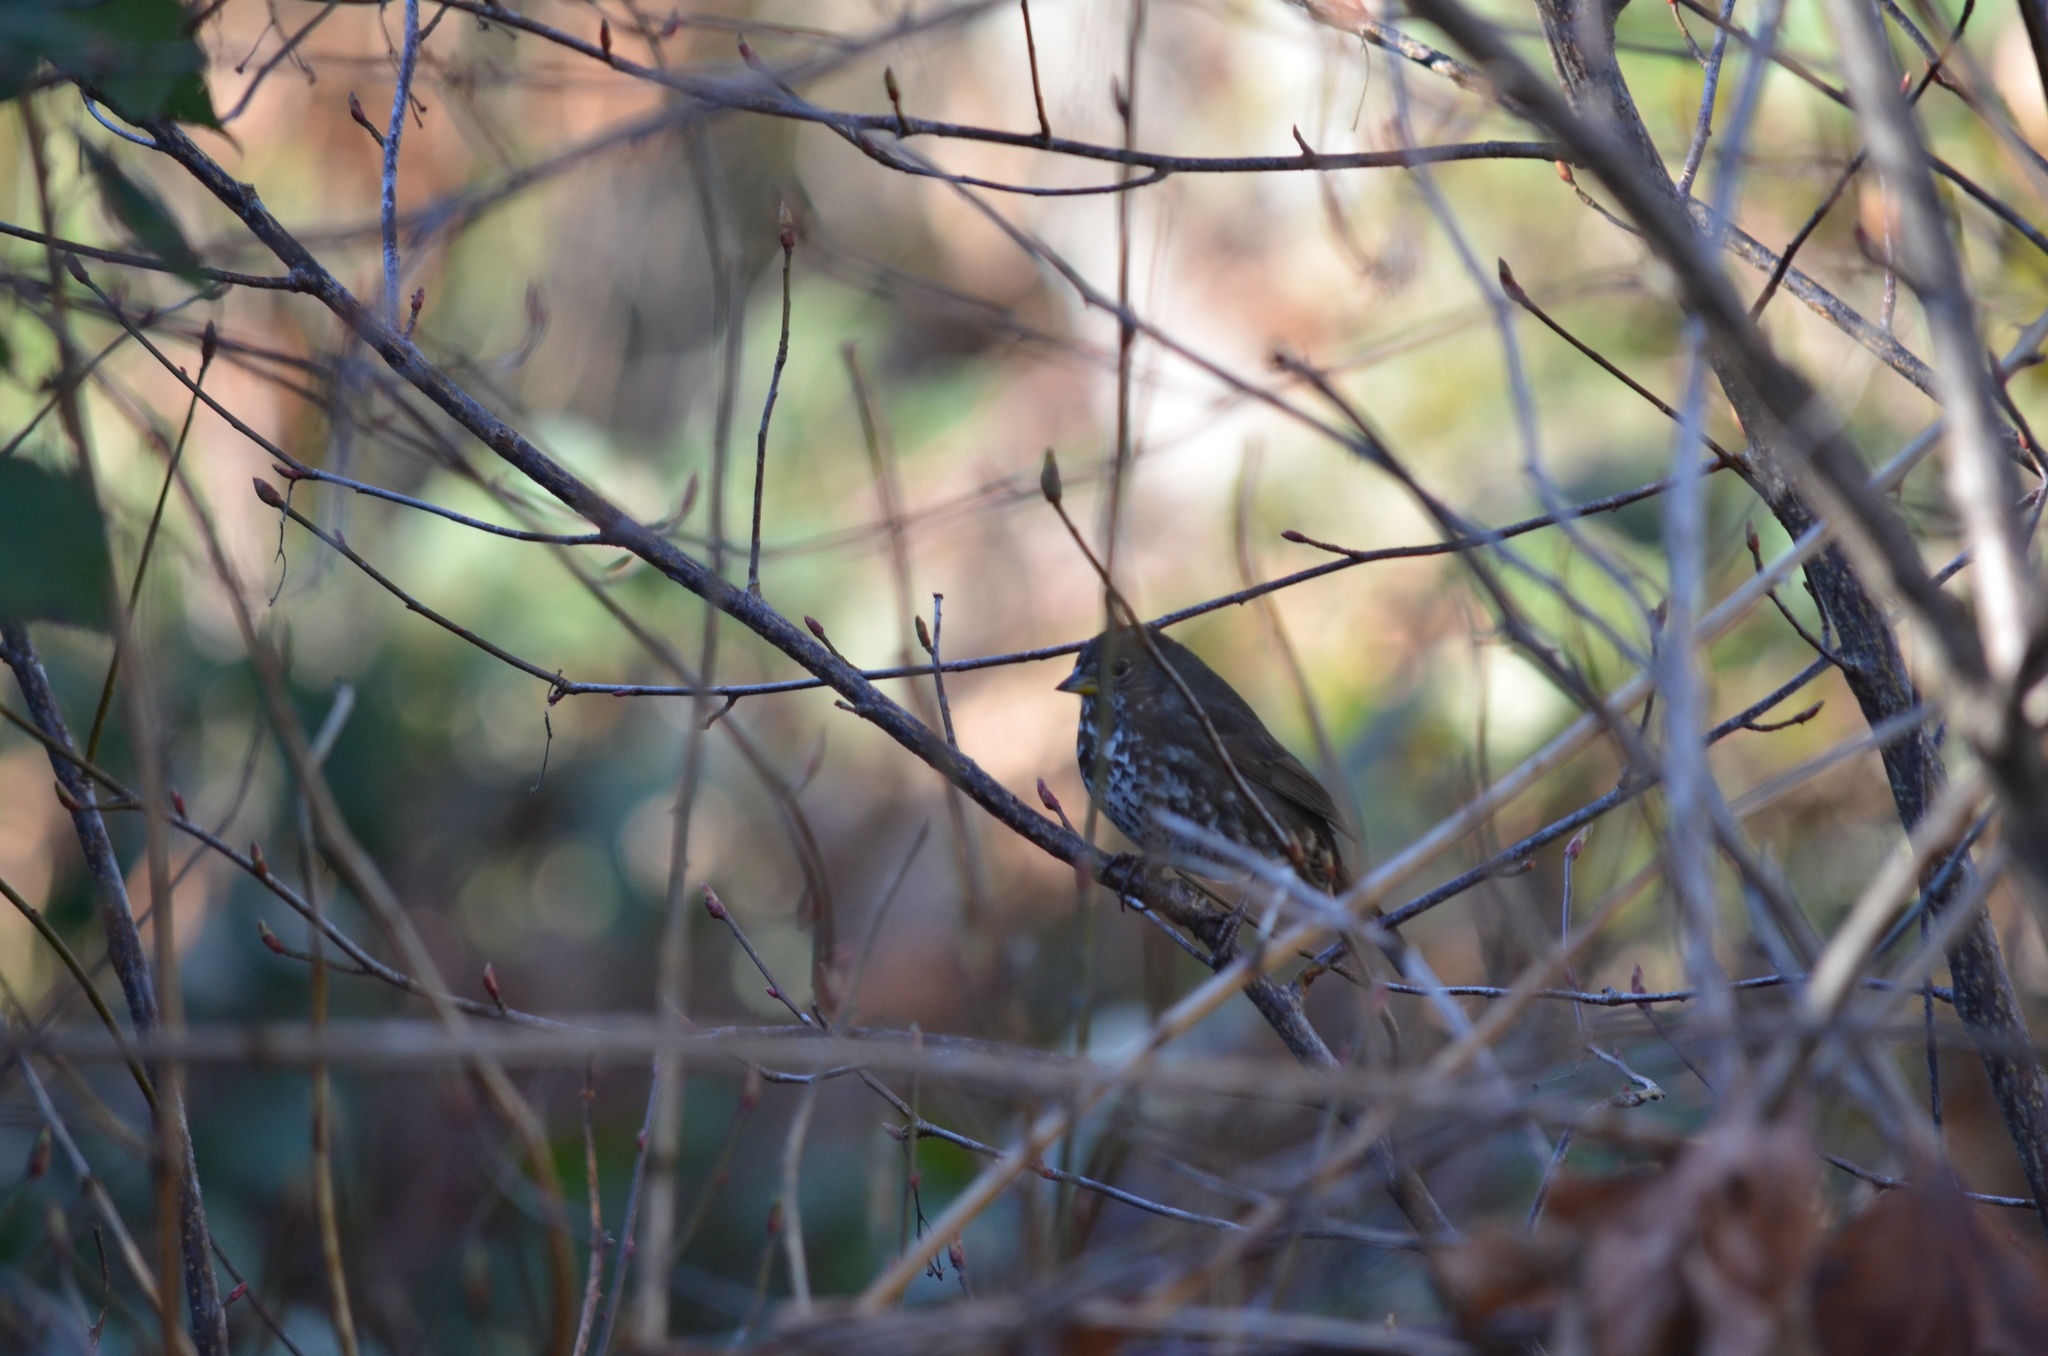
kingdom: Animalia
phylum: Chordata
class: Aves
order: Passeriformes
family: Passerellidae
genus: Passerella
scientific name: Passerella iliaca
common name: Fox sparrow
